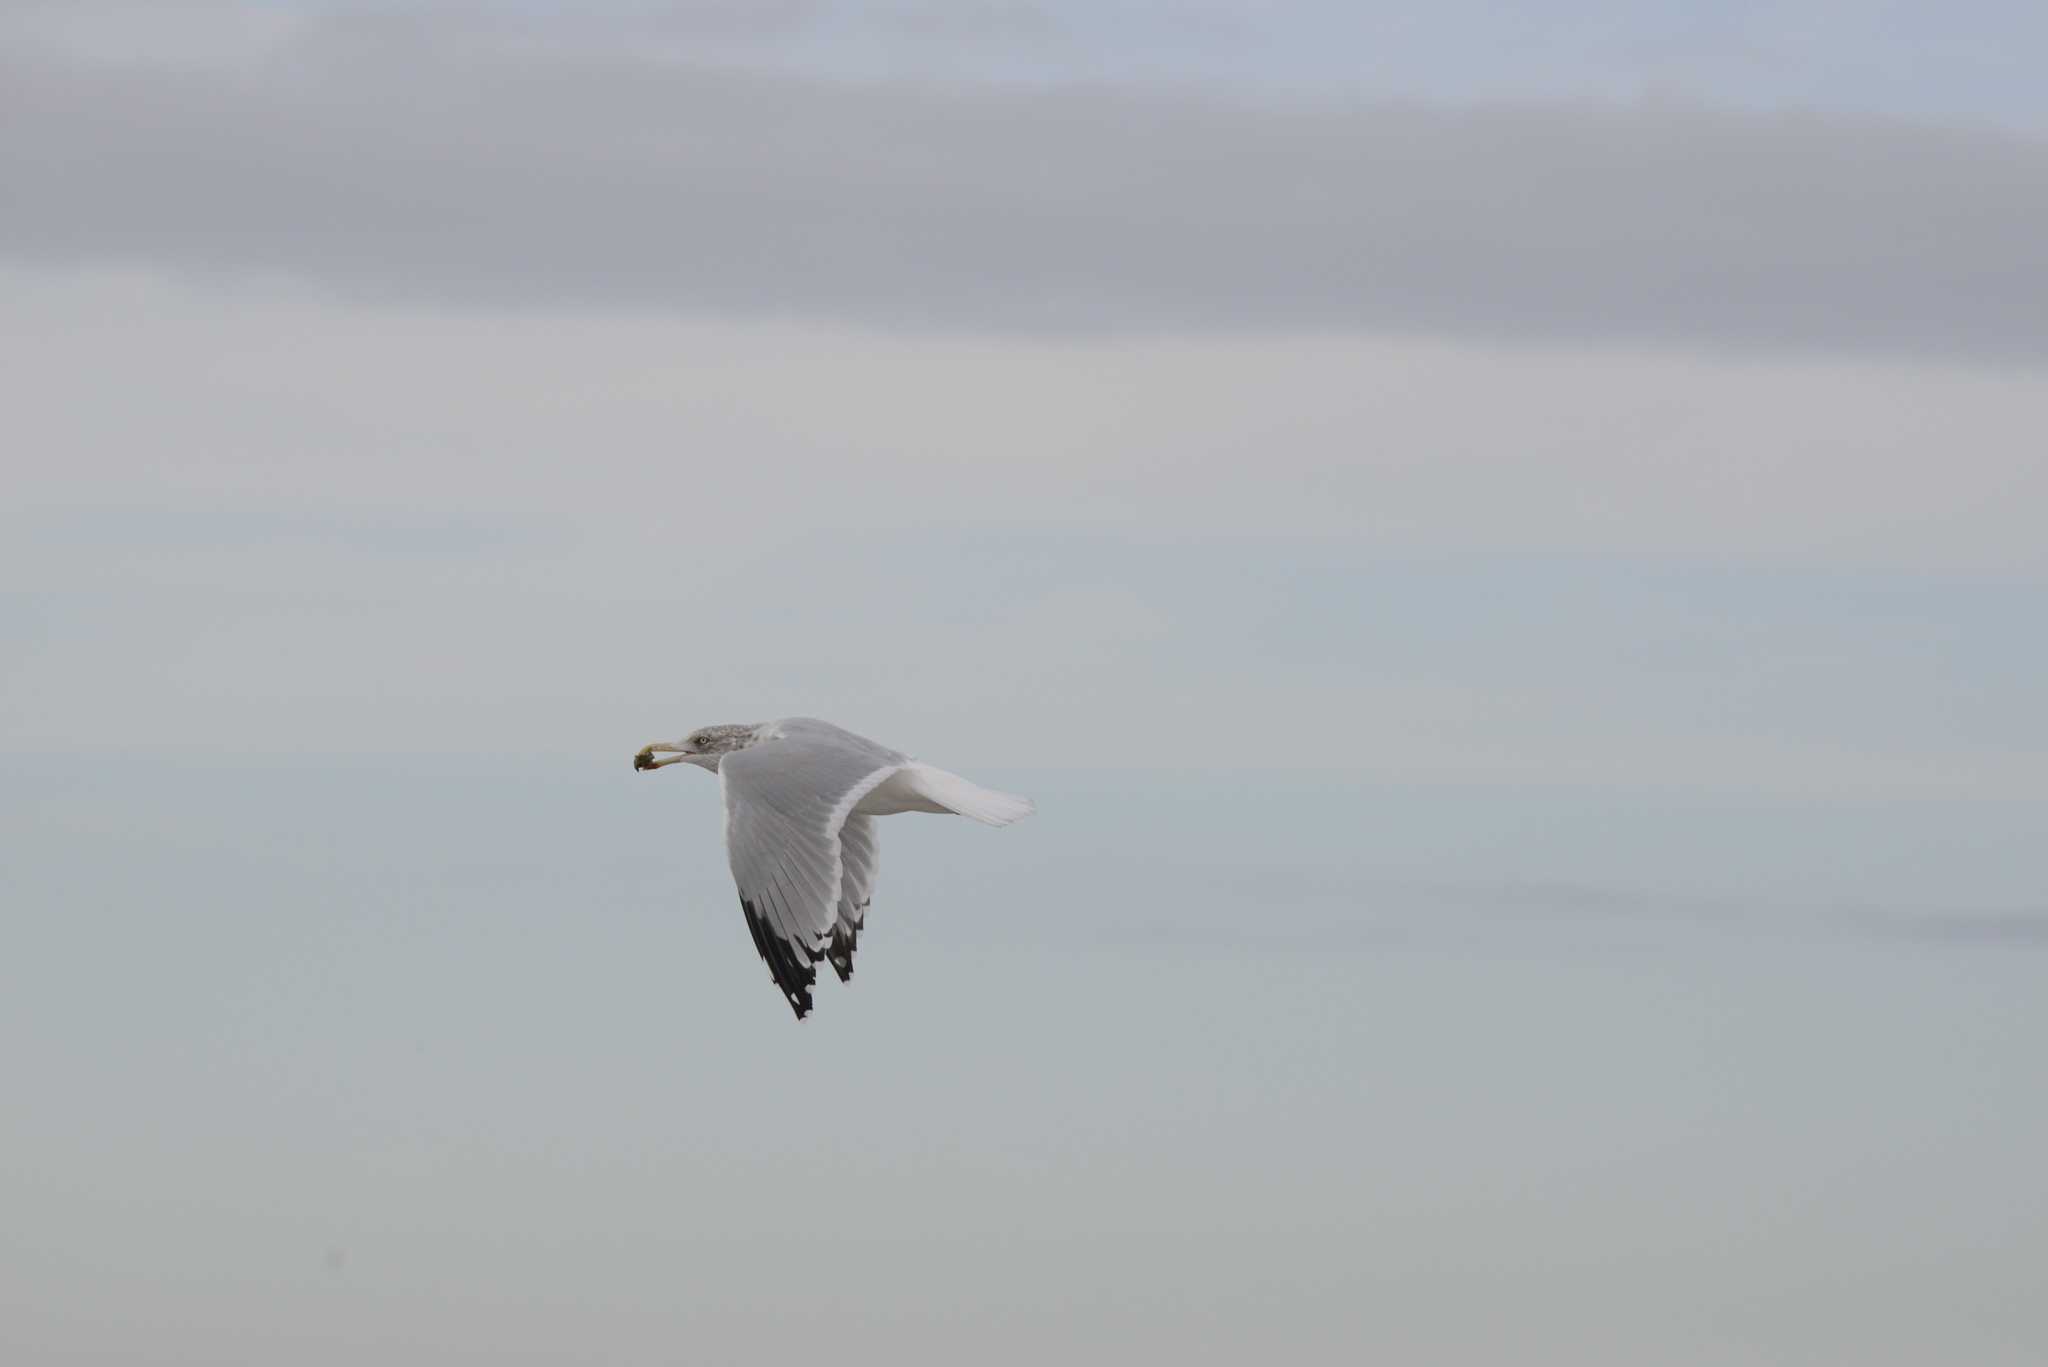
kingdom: Animalia
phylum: Chordata
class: Aves
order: Charadriiformes
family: Laridae
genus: Larus
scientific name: Larus argentatus
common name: Herring gull
